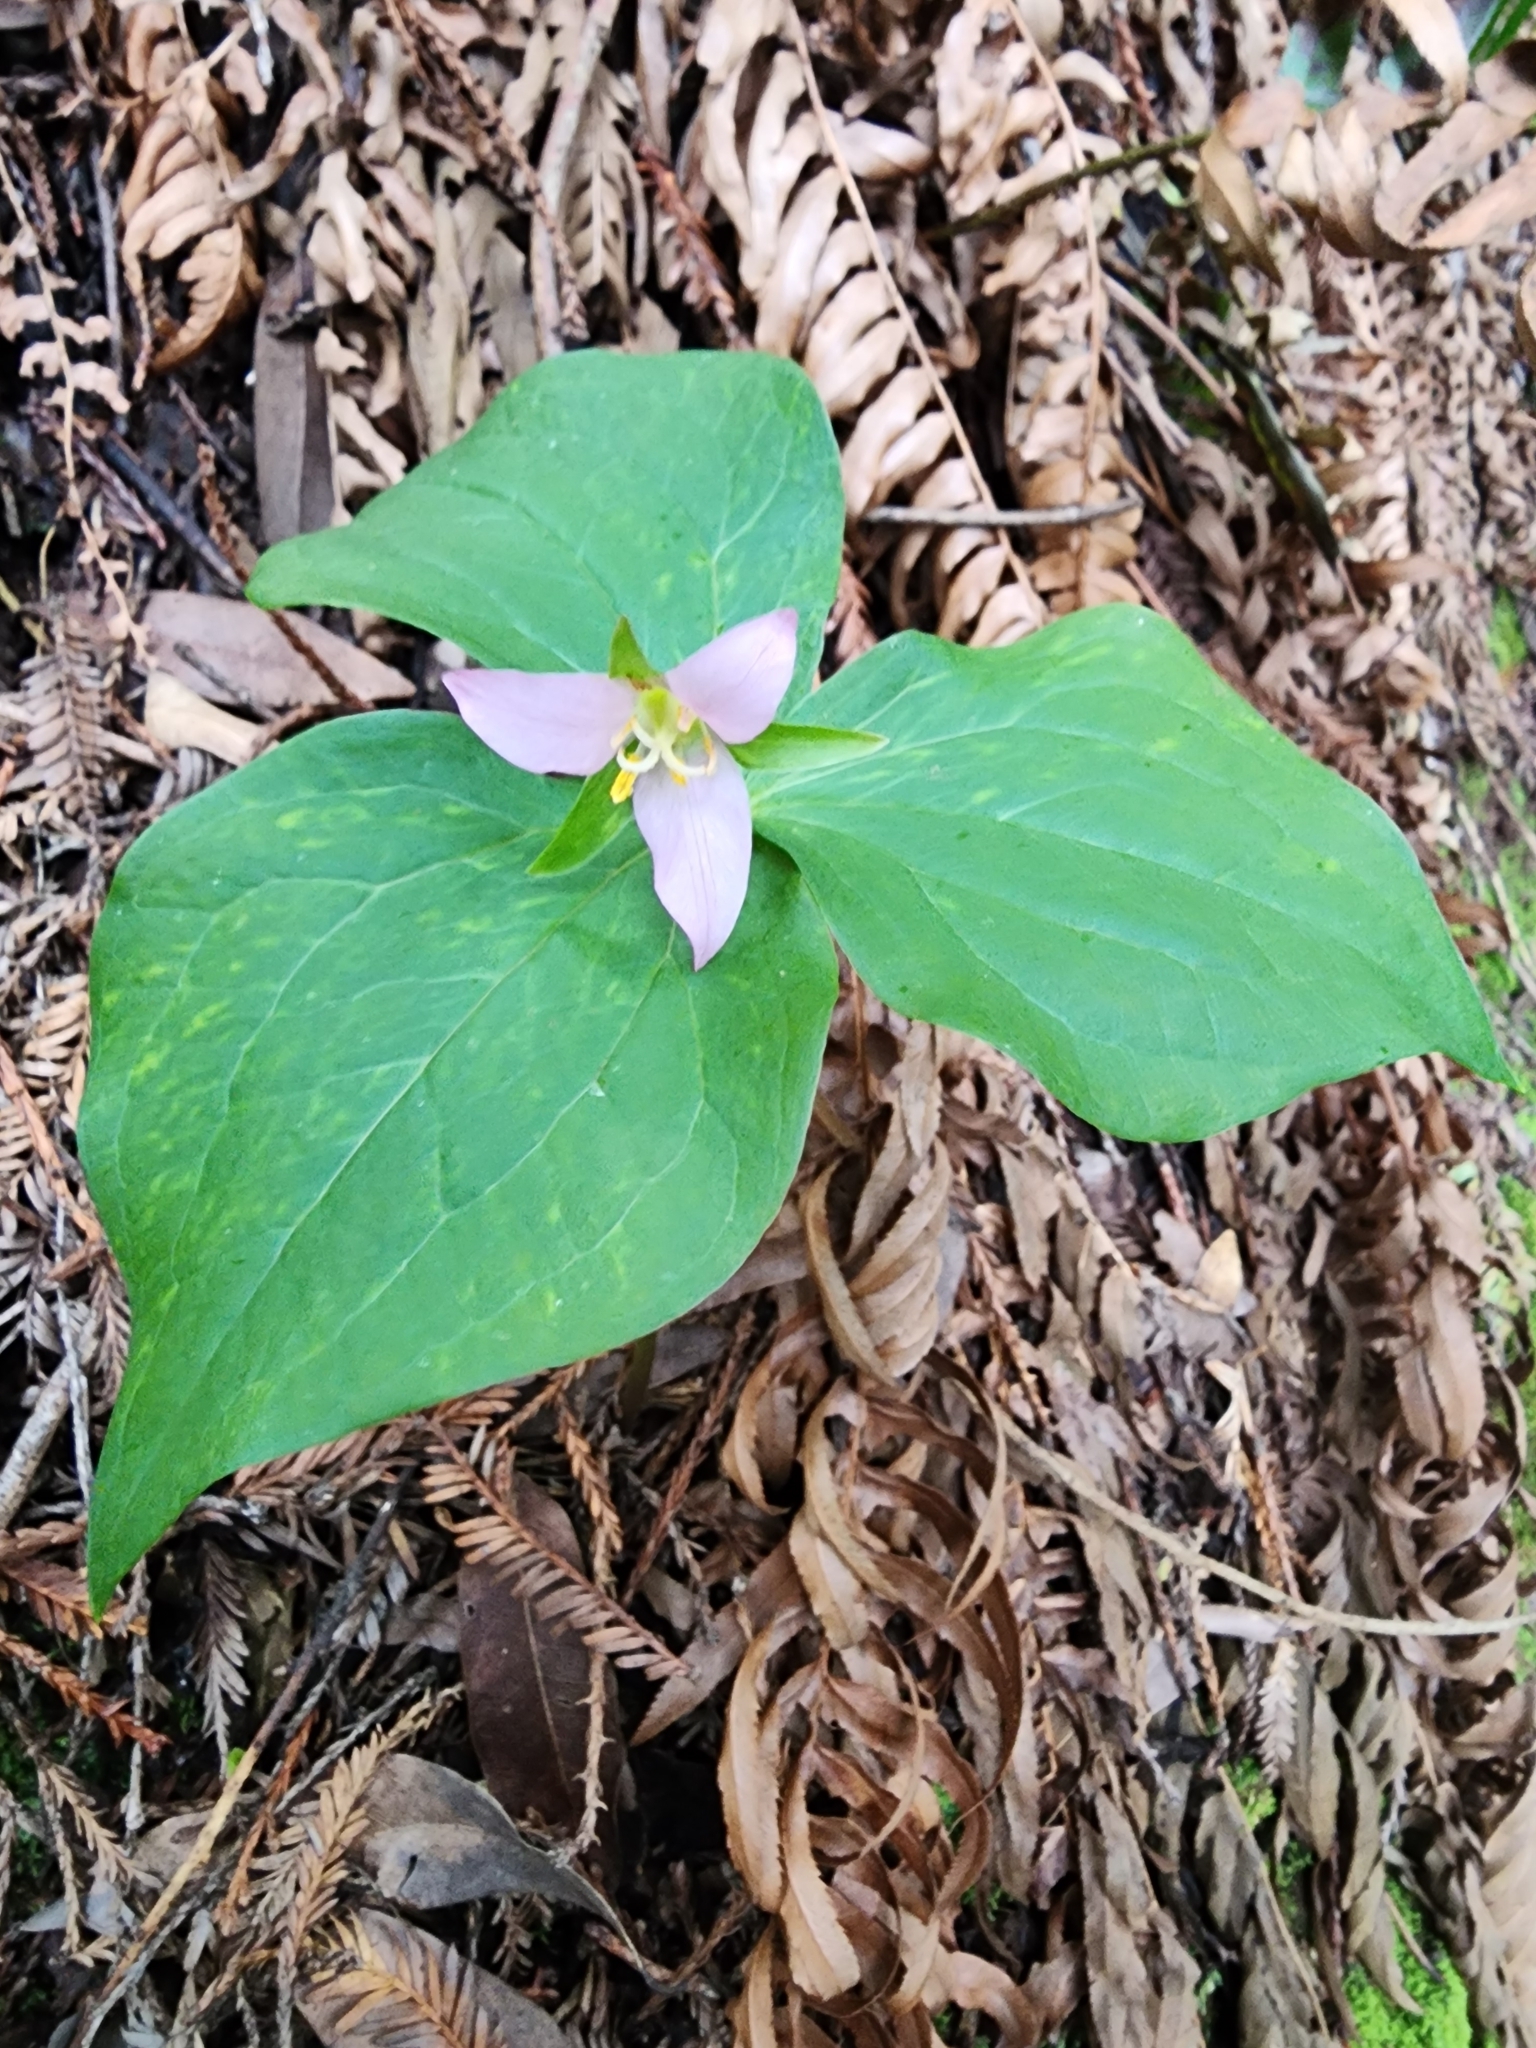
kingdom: Plantae
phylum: Tracheophyta
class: Liliopsida
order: Liliales
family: Melanthiaceae
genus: Trillium
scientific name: Trillium ovatum
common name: Pacific trillium
